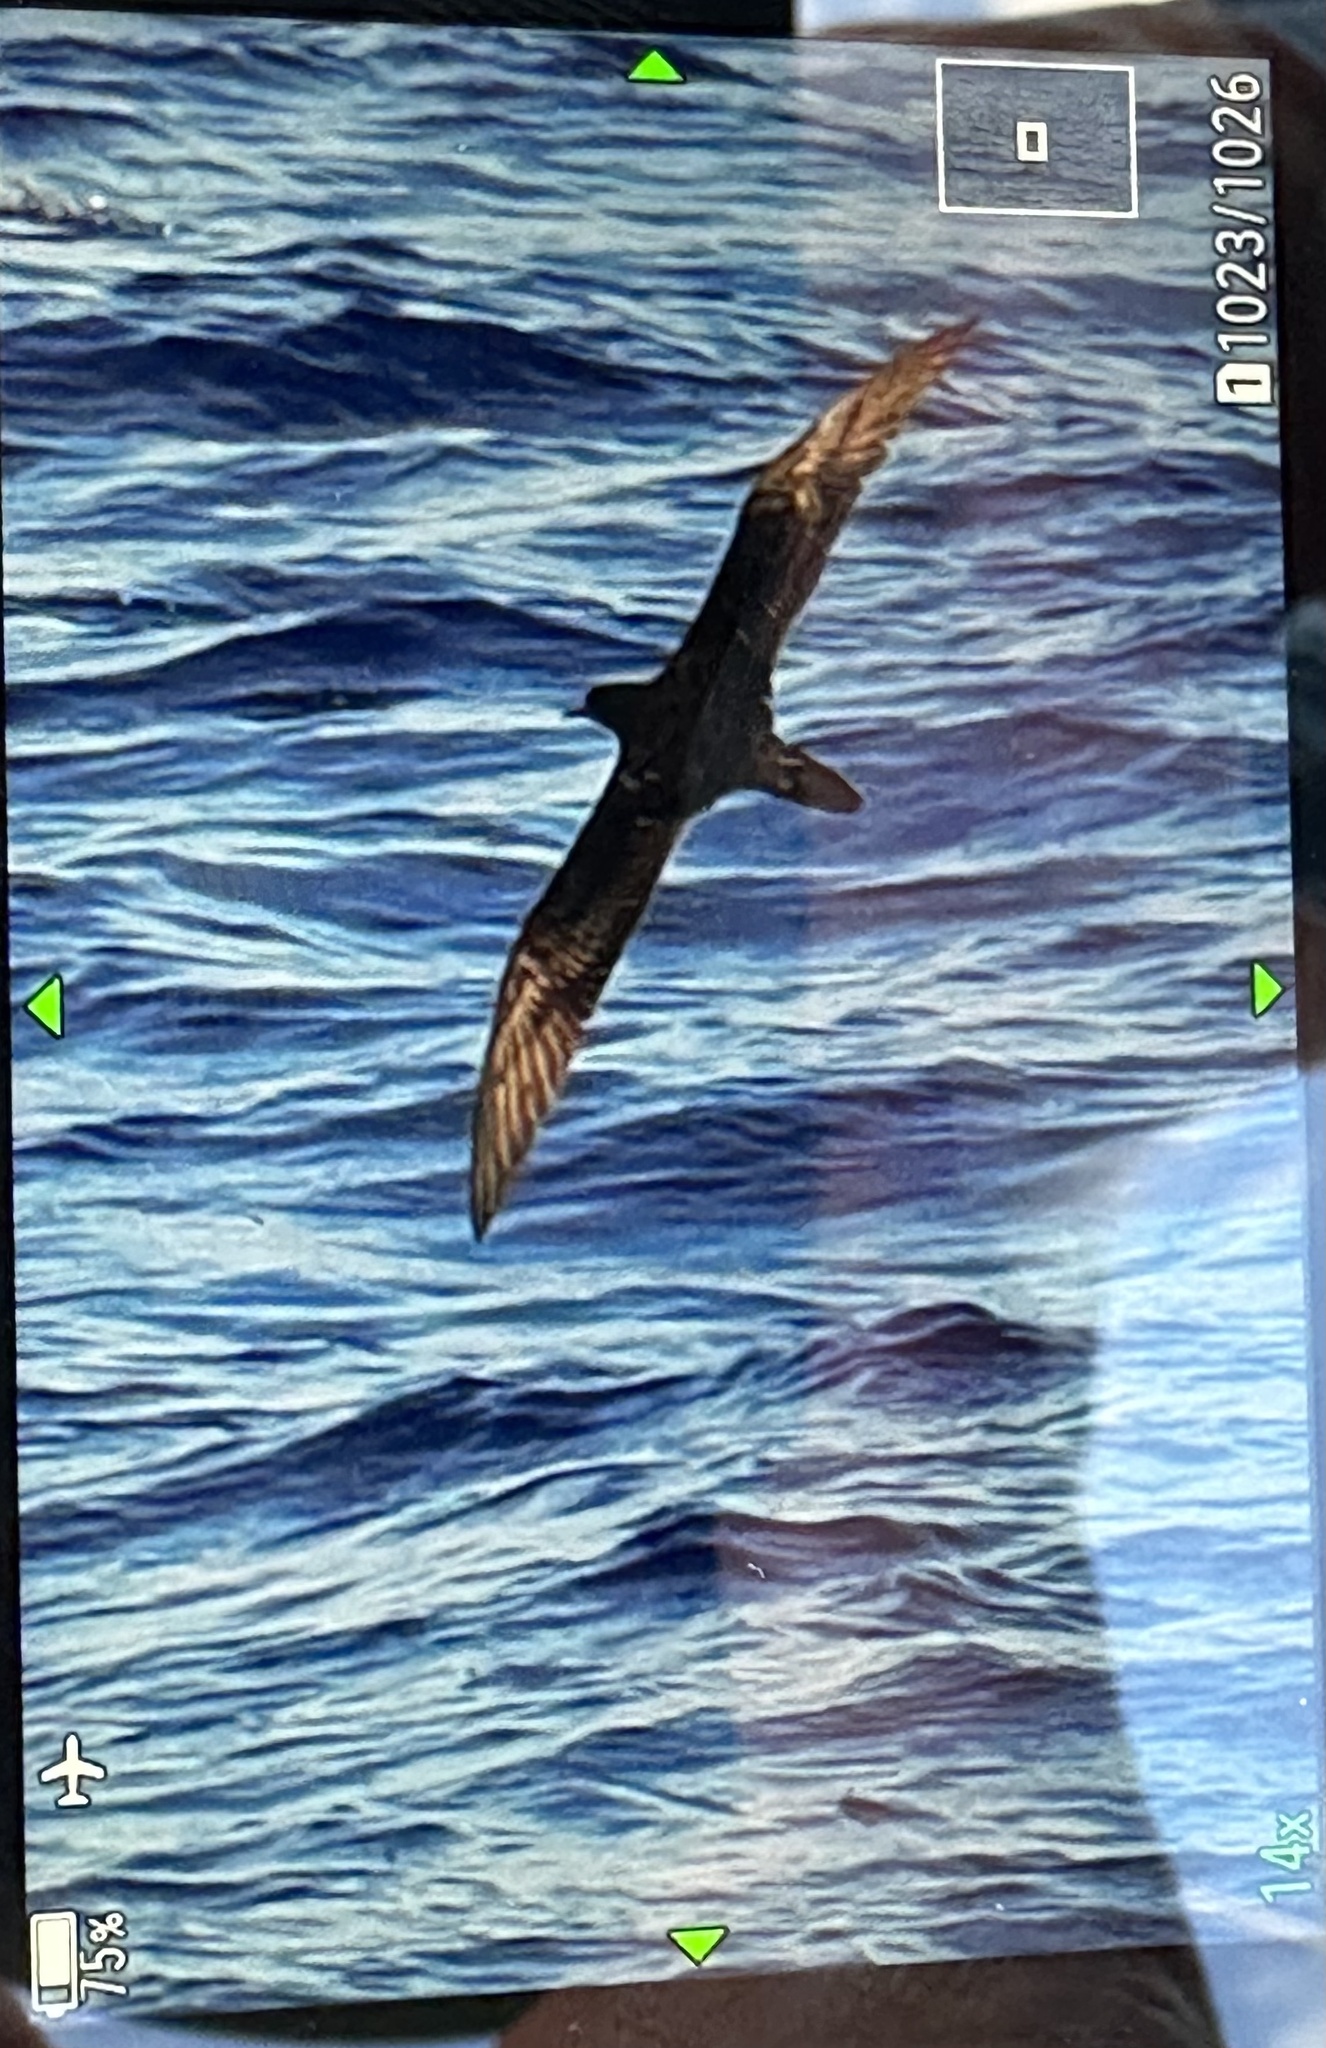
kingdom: Animalia
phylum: Chordata
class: Aves
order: Procellariiformes
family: Procellariidae
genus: Puffinus
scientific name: Puffinus pacificus
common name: Wedge-tailed shearwater
